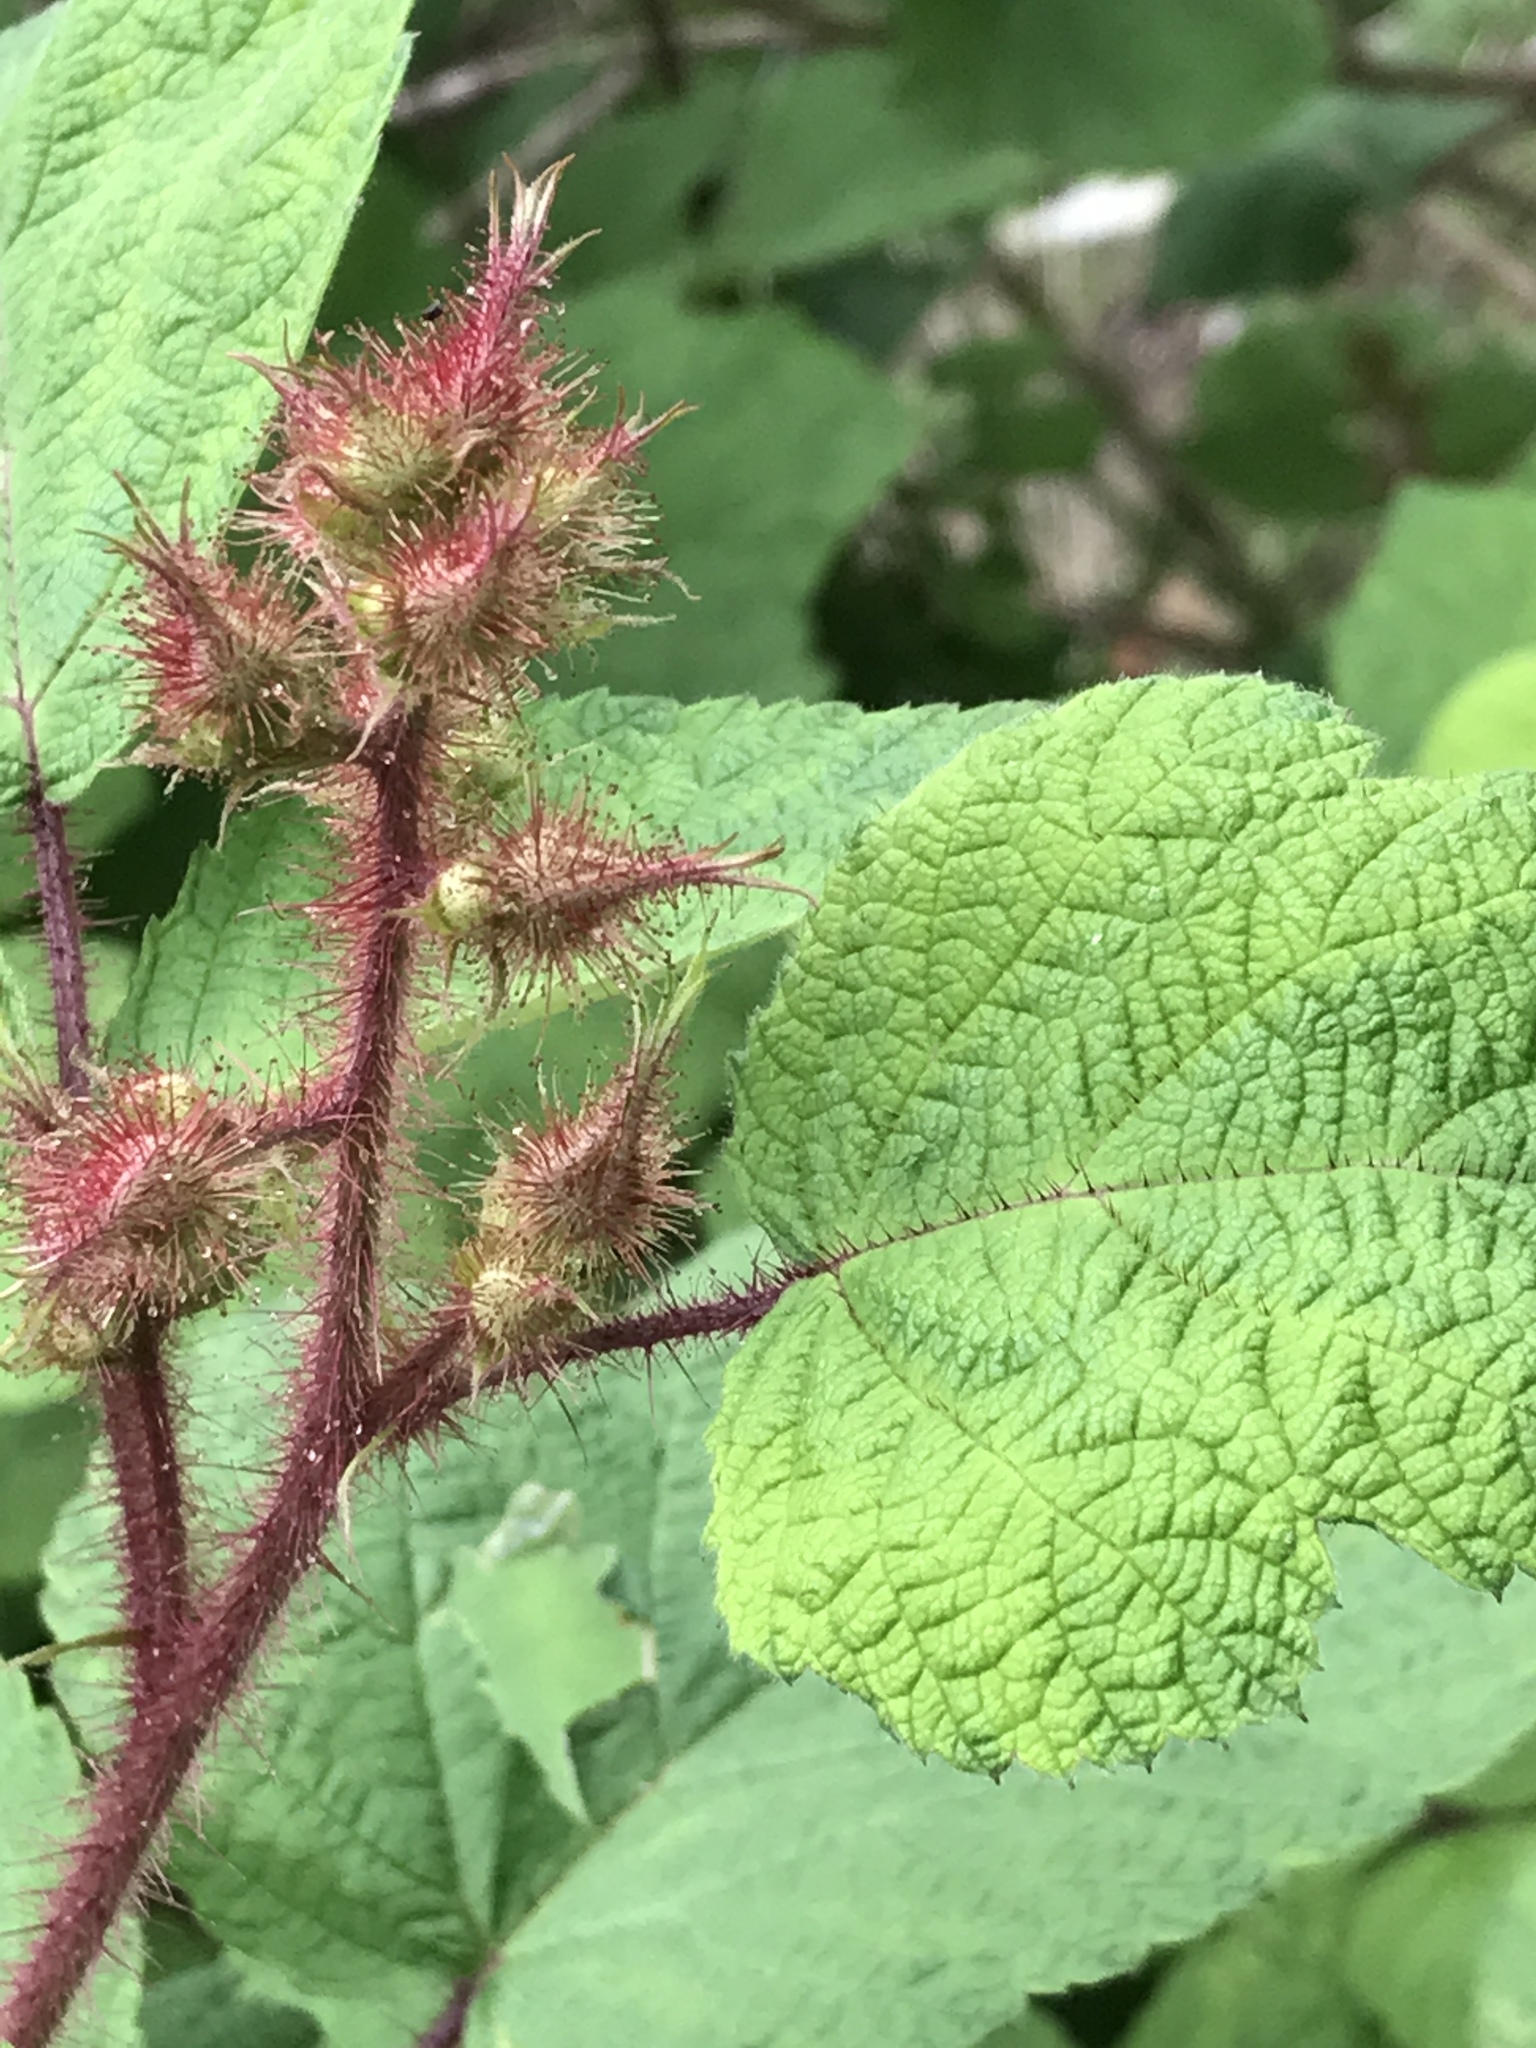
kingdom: Plantae
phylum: Tracheophyta
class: Magnoliopsida
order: Rosales
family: Rosaceae
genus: Rubus
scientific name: Rubus phoenicolasius
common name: Japanese wineberry
